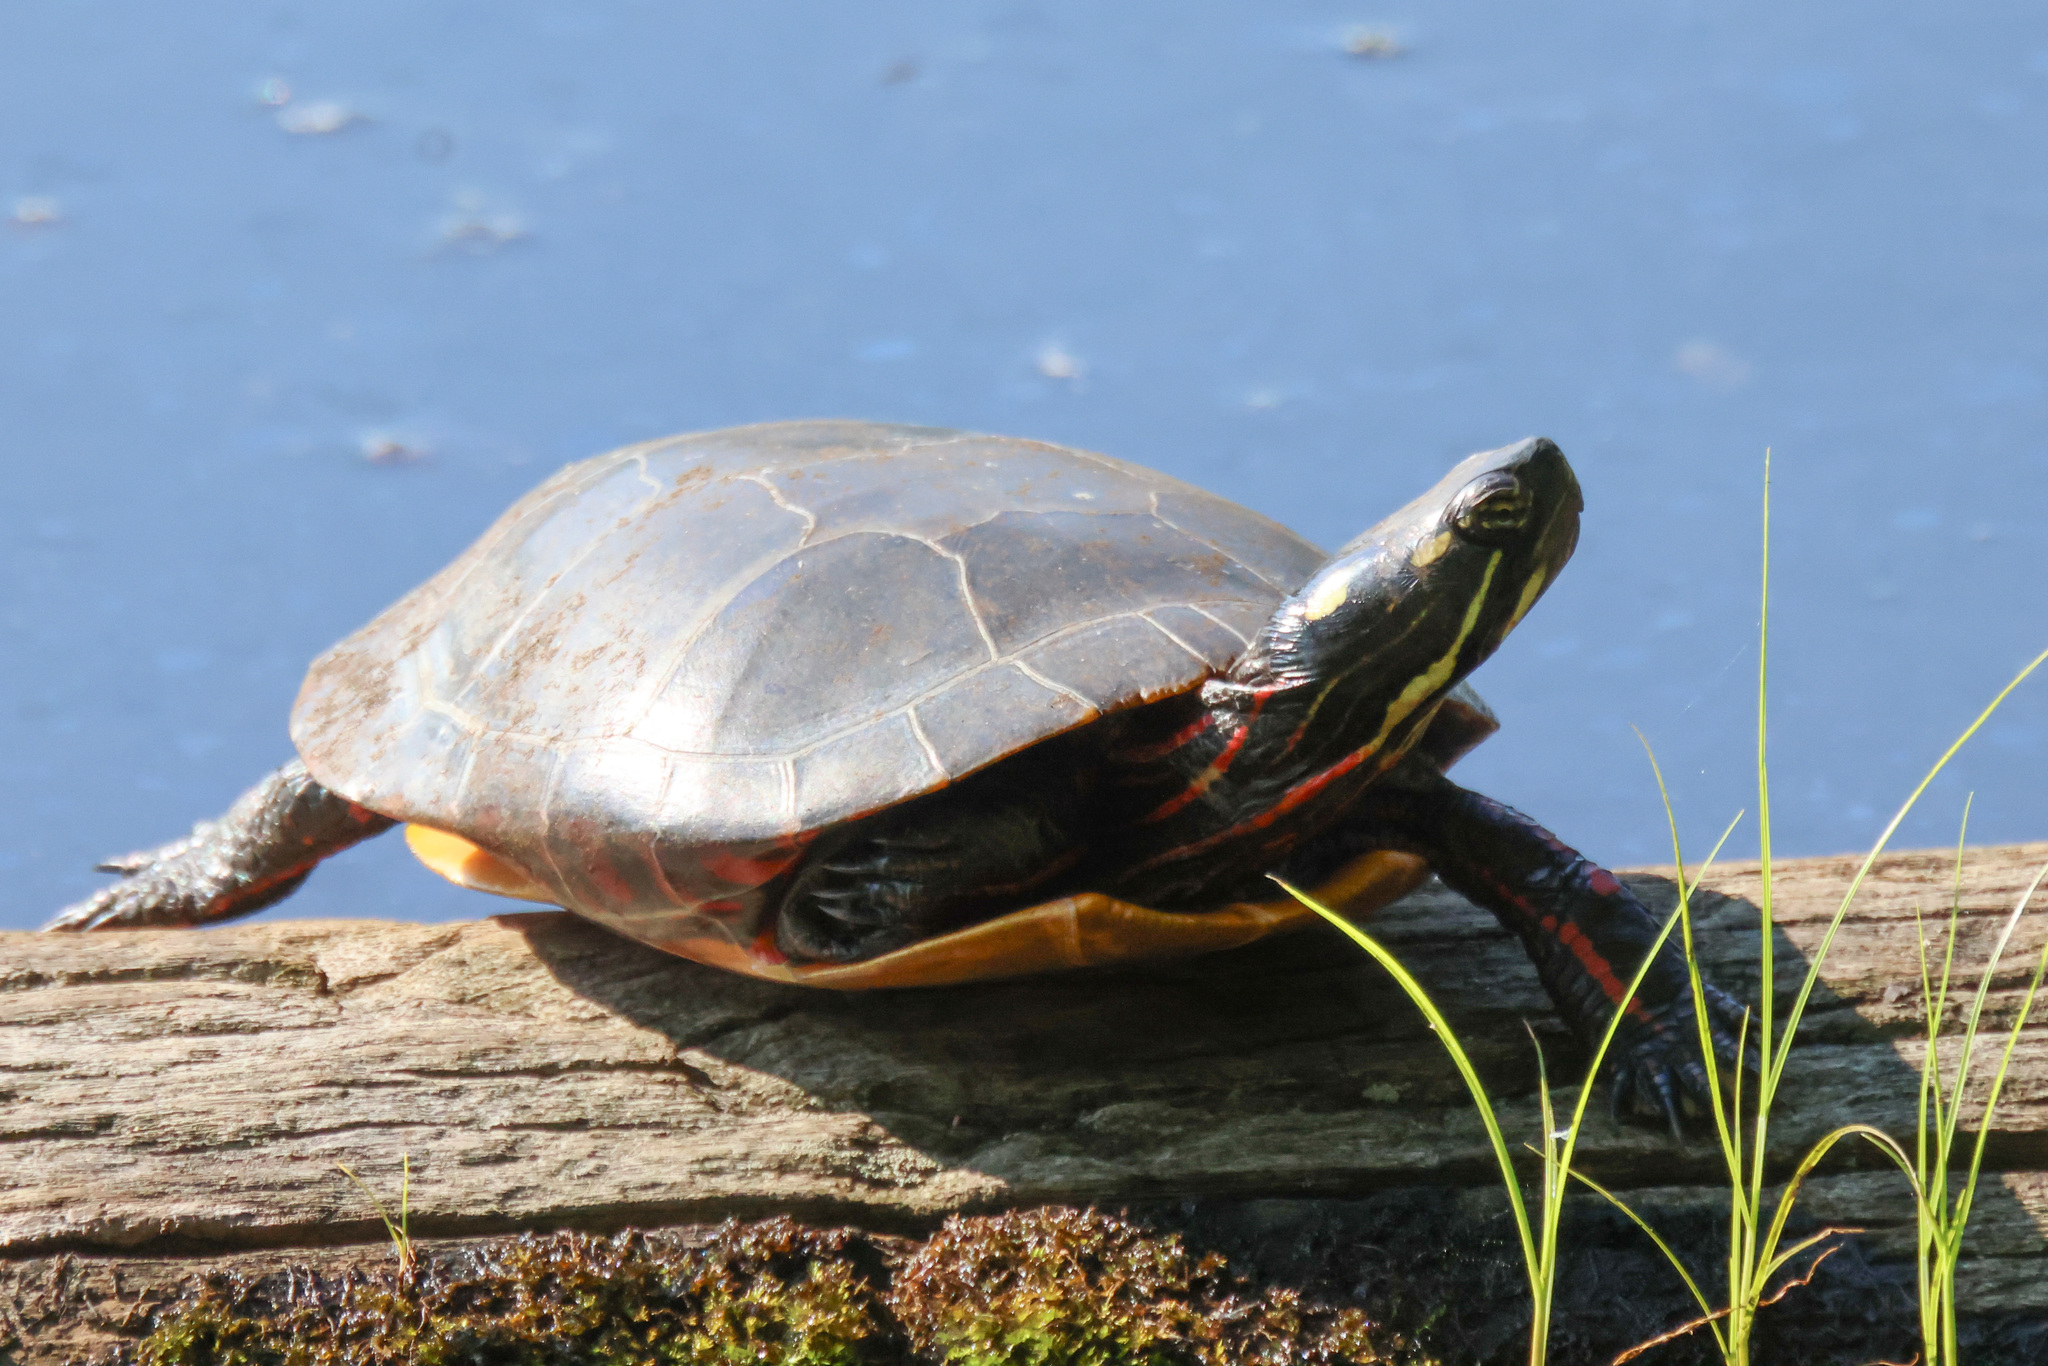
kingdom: Animalia
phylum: Chordata
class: Testudines
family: Emydidae
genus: Chrysemys
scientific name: Chrysemys picta
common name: Painted turtle
